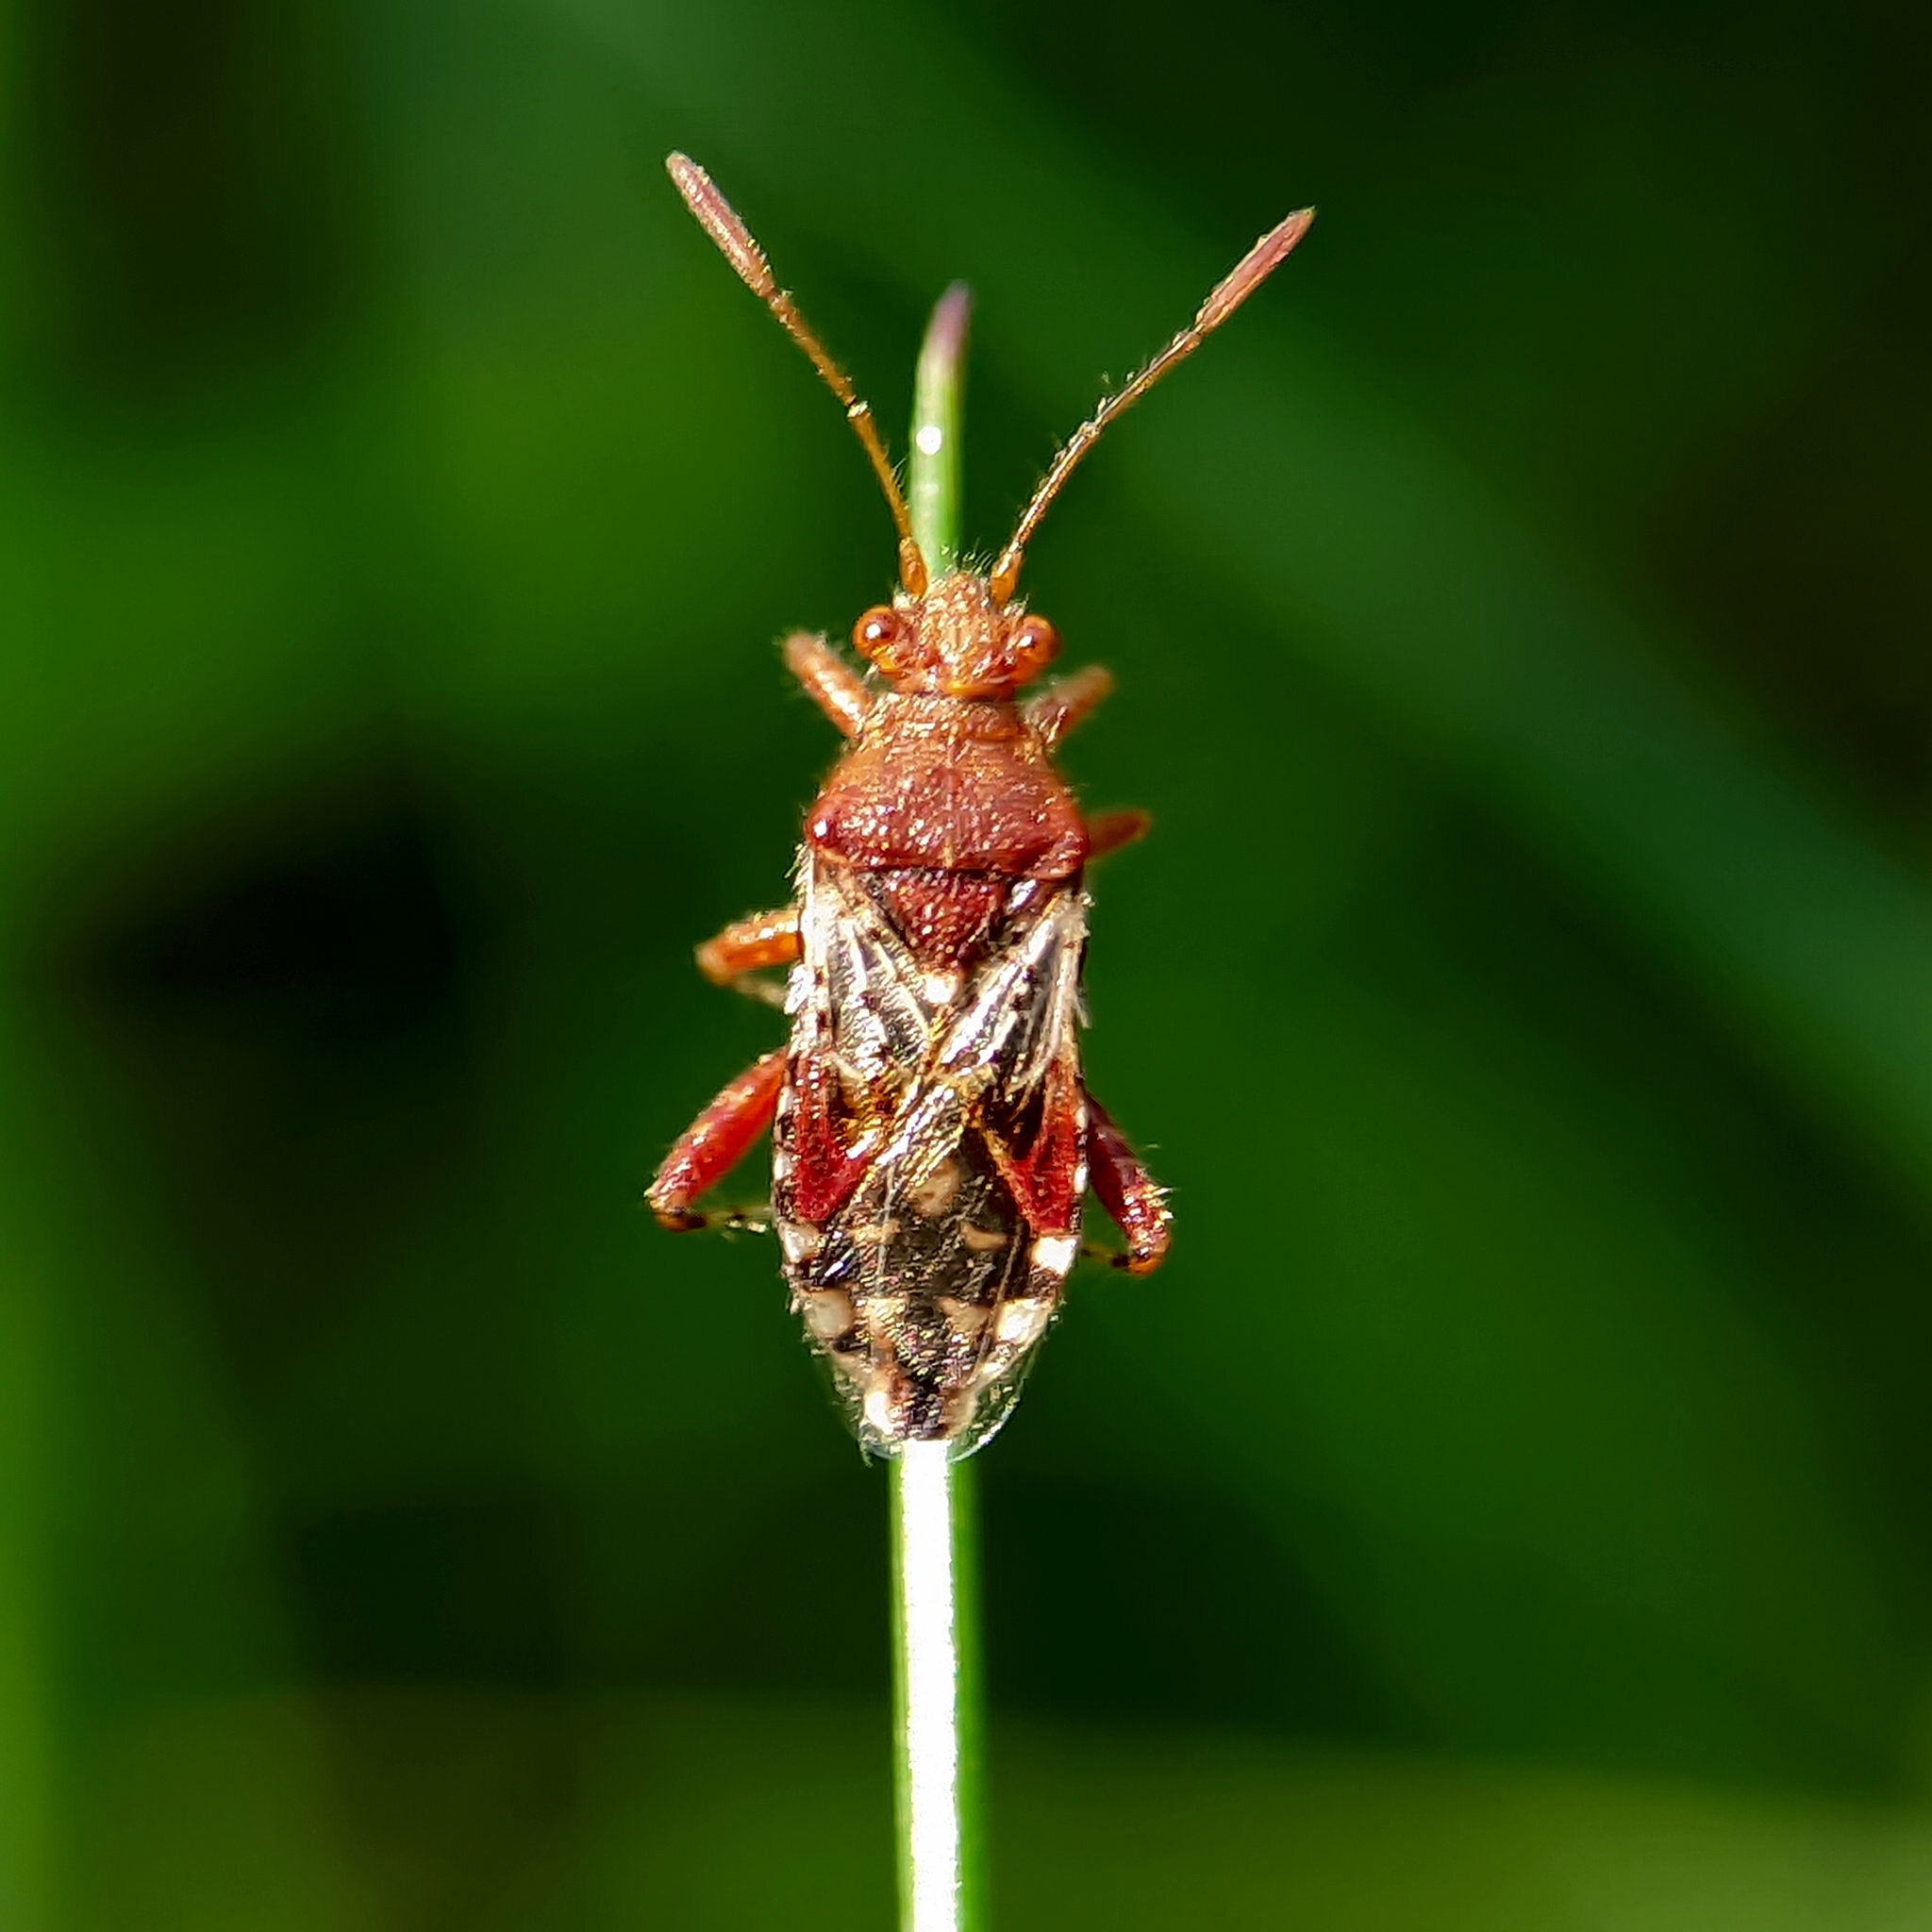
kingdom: Animalia
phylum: Arthropoda
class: Insecta
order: Hemiptera
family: Rhopalidae
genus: Rhopalus
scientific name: Rhopalus subrufus
